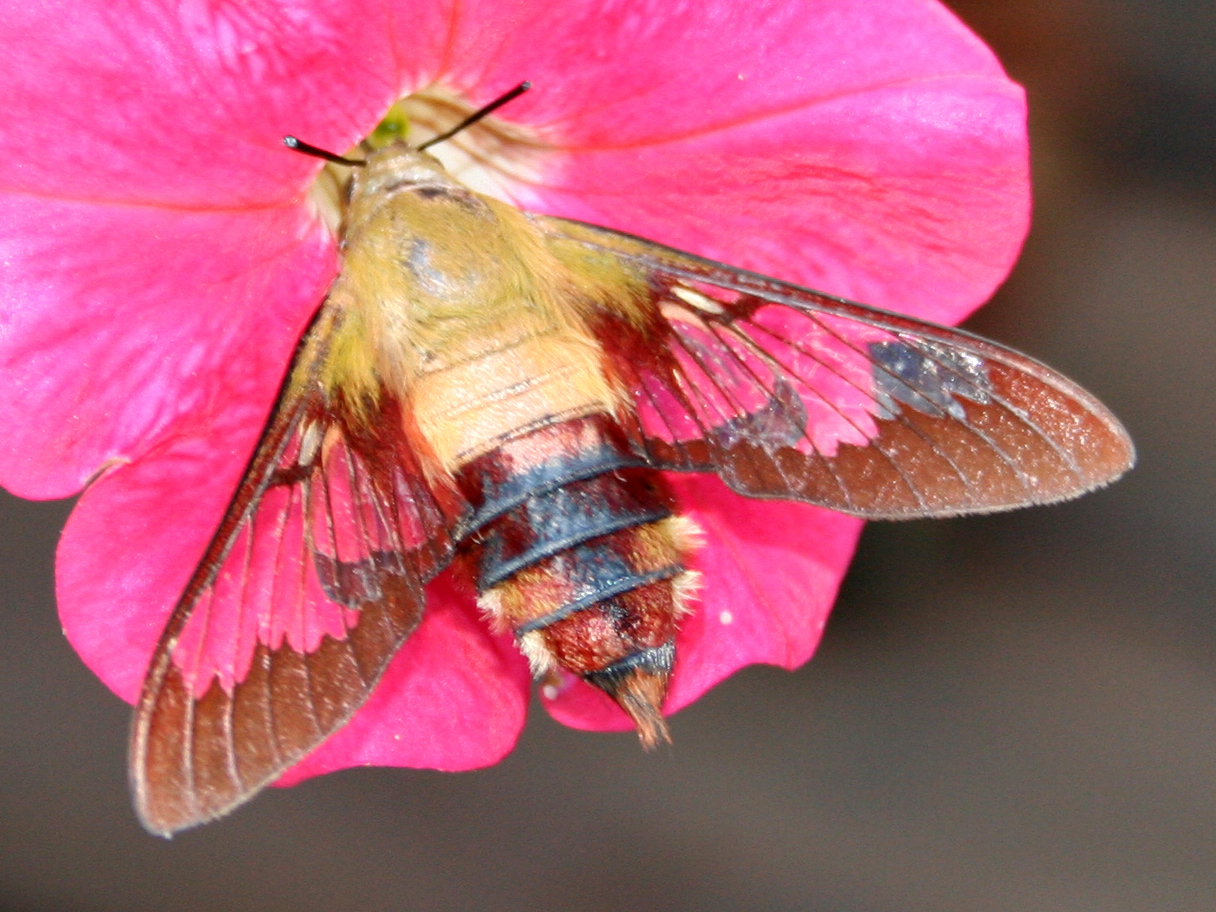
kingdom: Animalia
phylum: Arthropoda
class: Insecta
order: Lepidoptera
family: Sphingidae
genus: Hemaris
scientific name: Hemaris thysbe
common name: Common clear-wing
